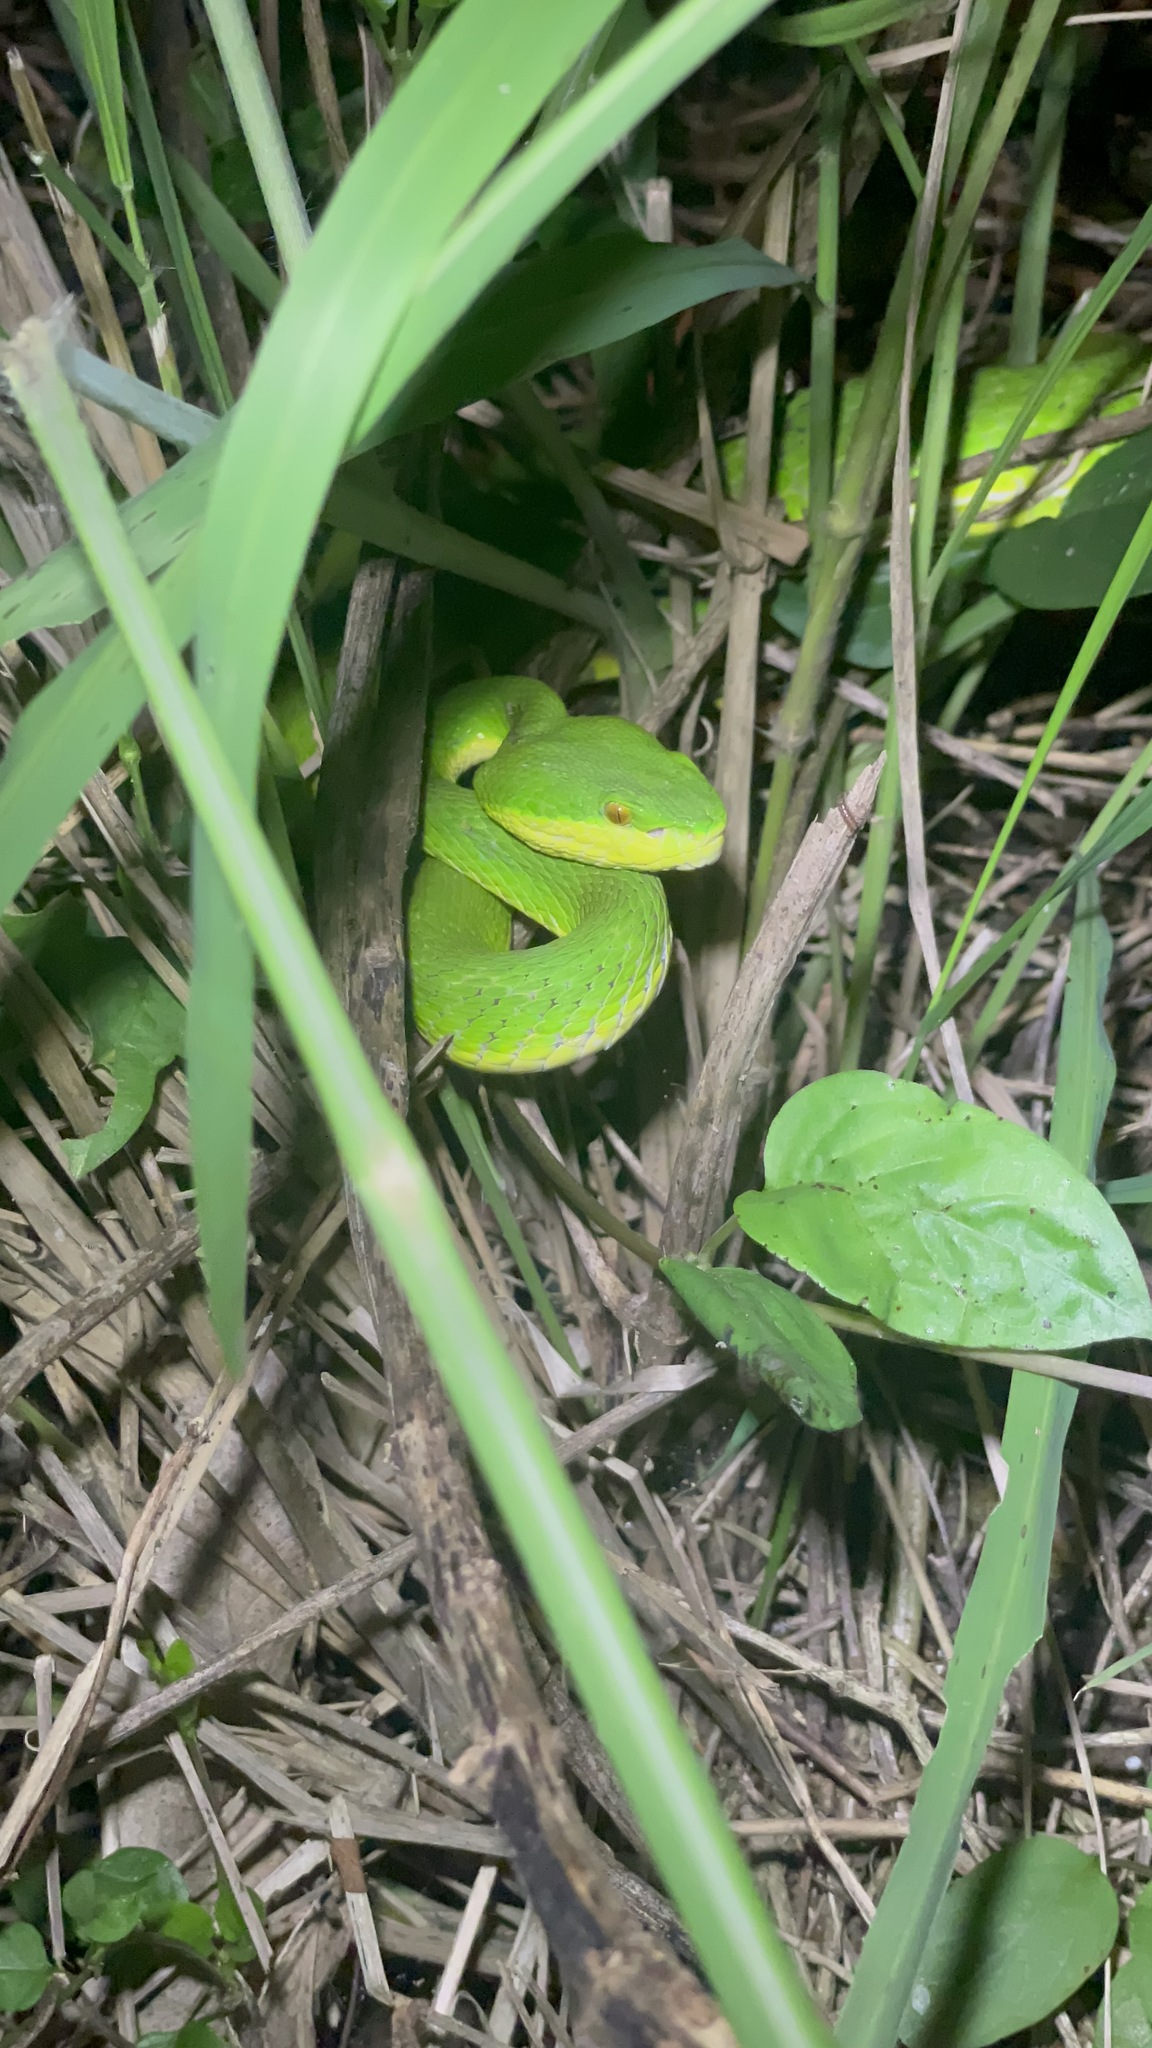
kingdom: Animalia
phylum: Chordata
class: Squamata
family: Viperidae
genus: Trimeresurus
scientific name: Trimeresurus albolabris
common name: White-lipped pitviper
